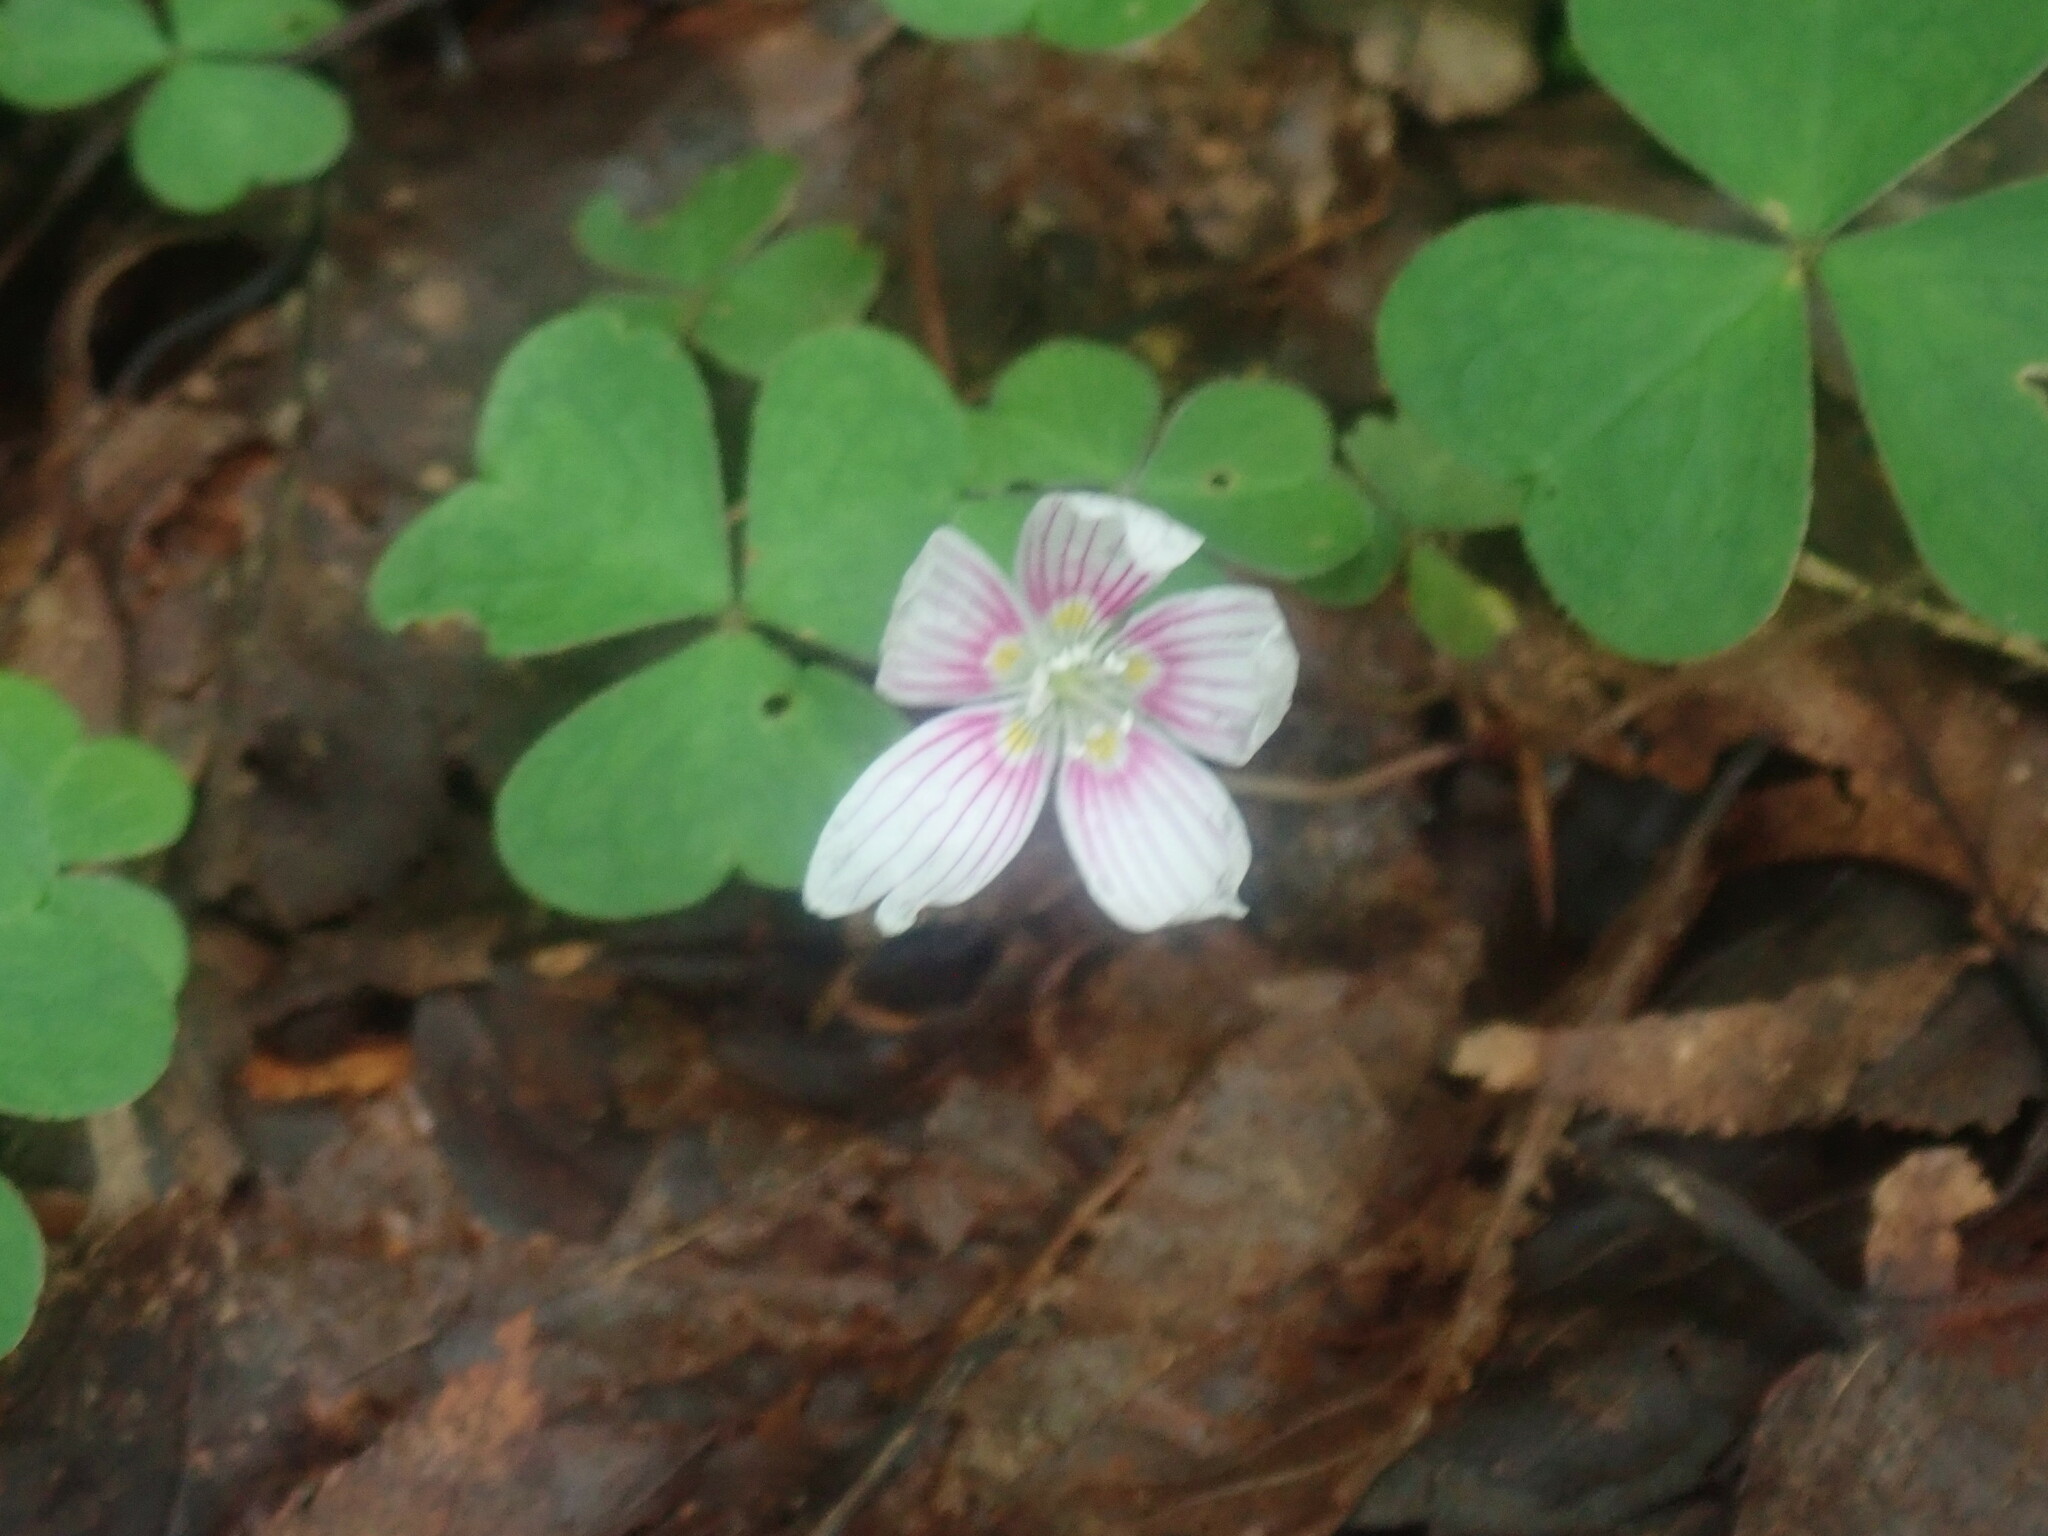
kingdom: Plantae
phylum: Tracheophyta
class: Magnoliopsida
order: Oxalidales
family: Oxalidaceae
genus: Oxalis
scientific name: Oxalis montana
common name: American wood-sorrel
